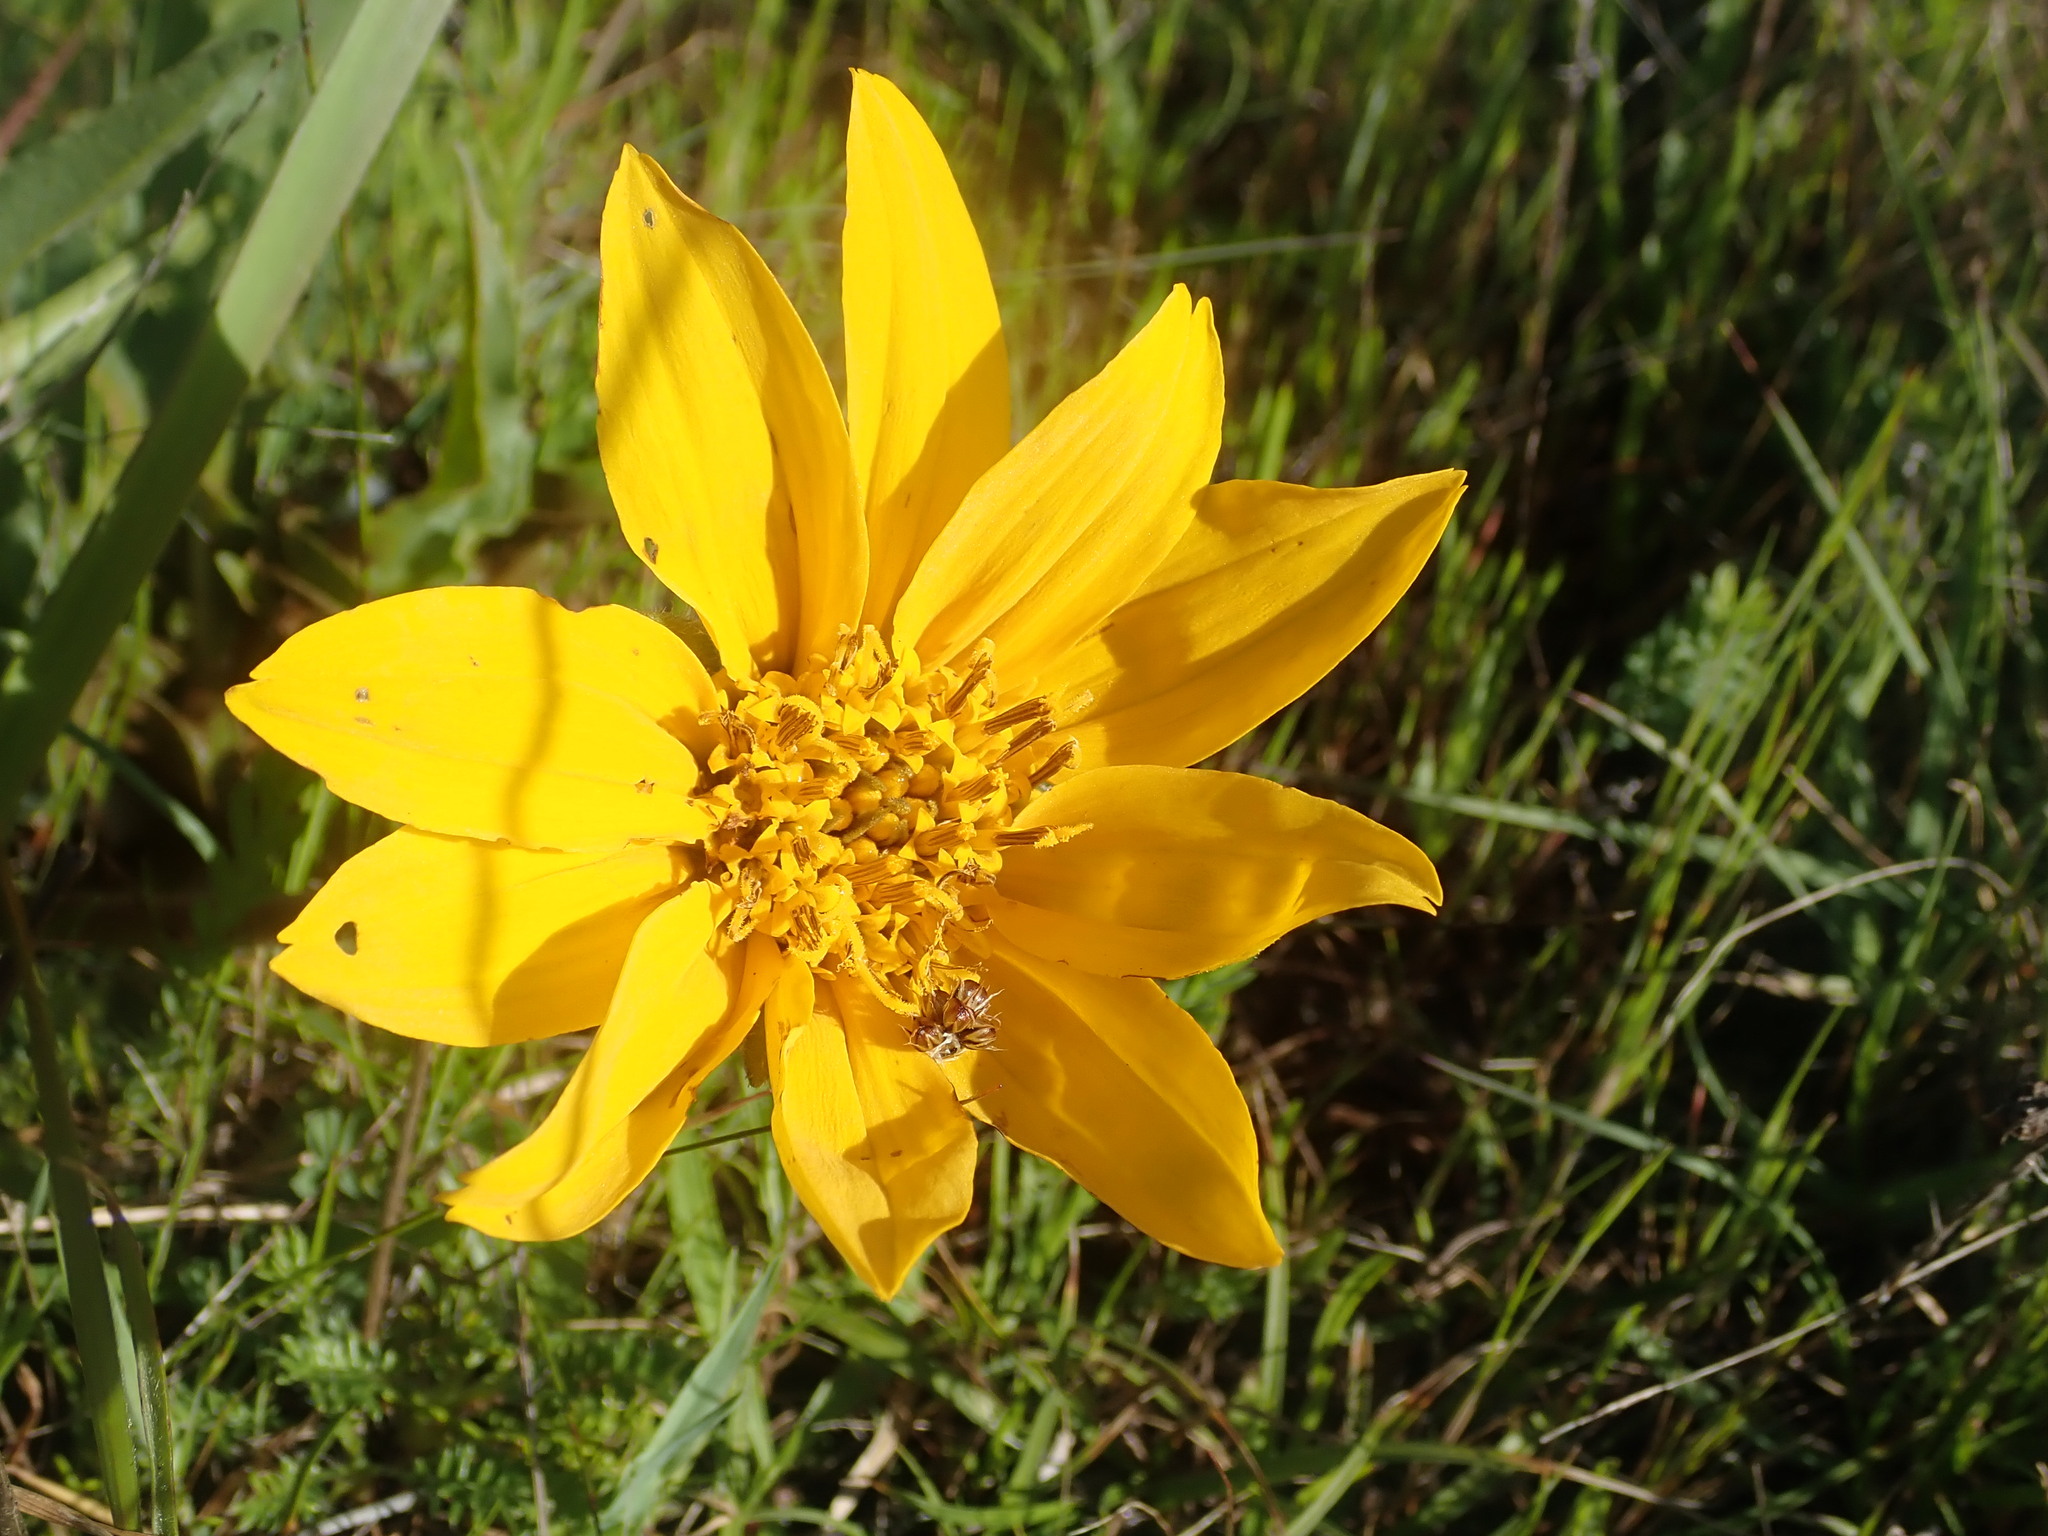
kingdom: Plantae
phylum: Tracheophyta
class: Magnoliopsida
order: Asterales
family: Asteraceae
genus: Wyethia
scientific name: Wyethia angustifolia
